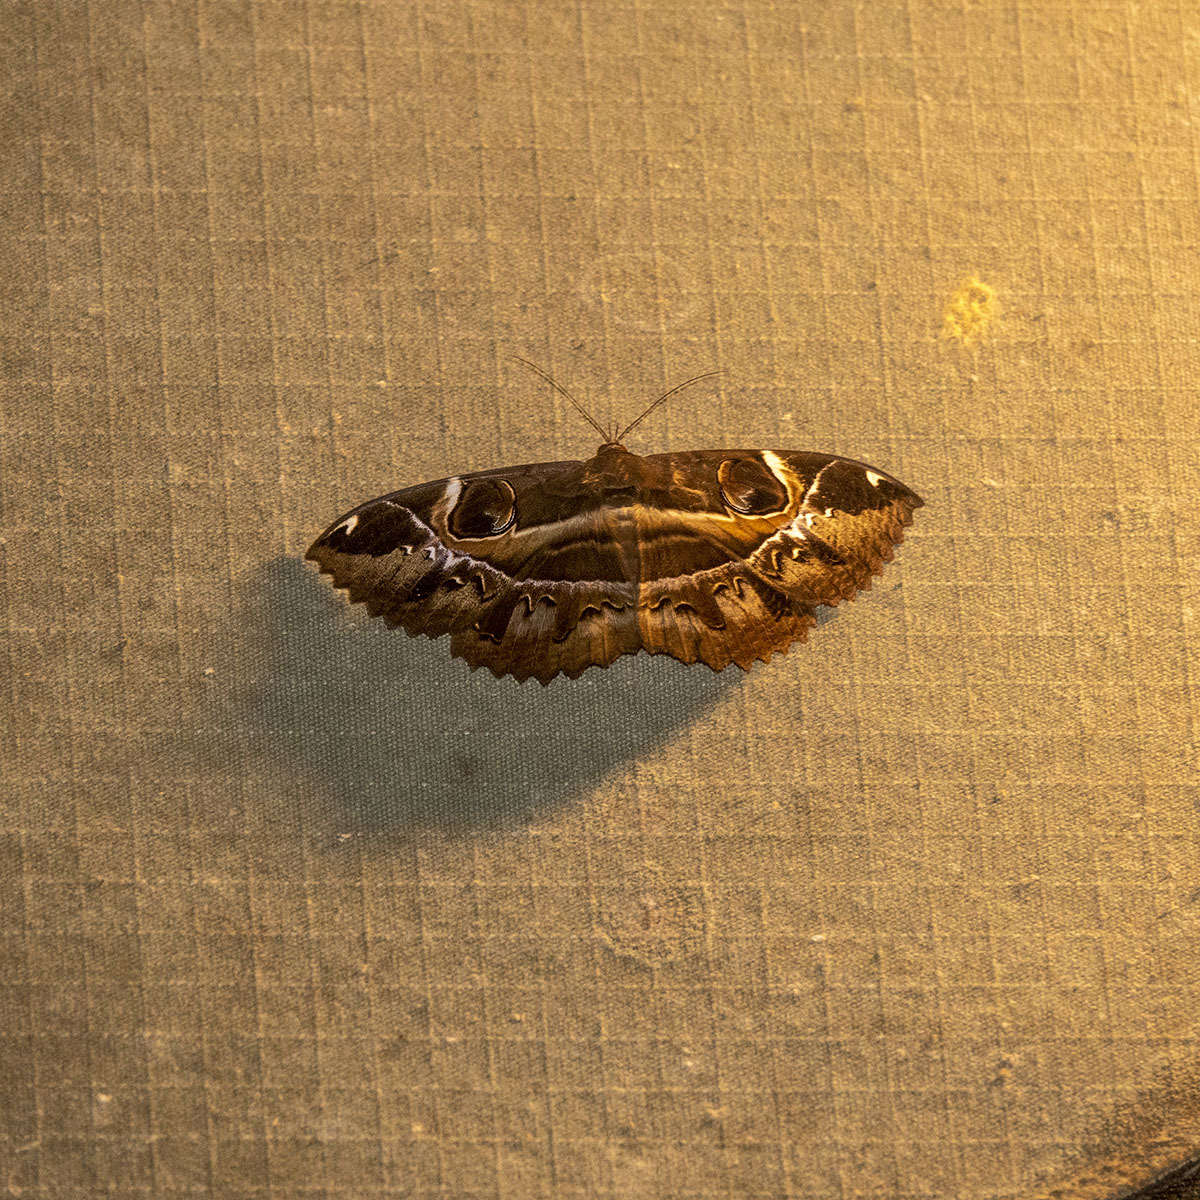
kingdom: Animalia
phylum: Arthropoda
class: Insecta
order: Lepidoptera
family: Erebidae
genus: Erebus
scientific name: Erebus ephesperis
